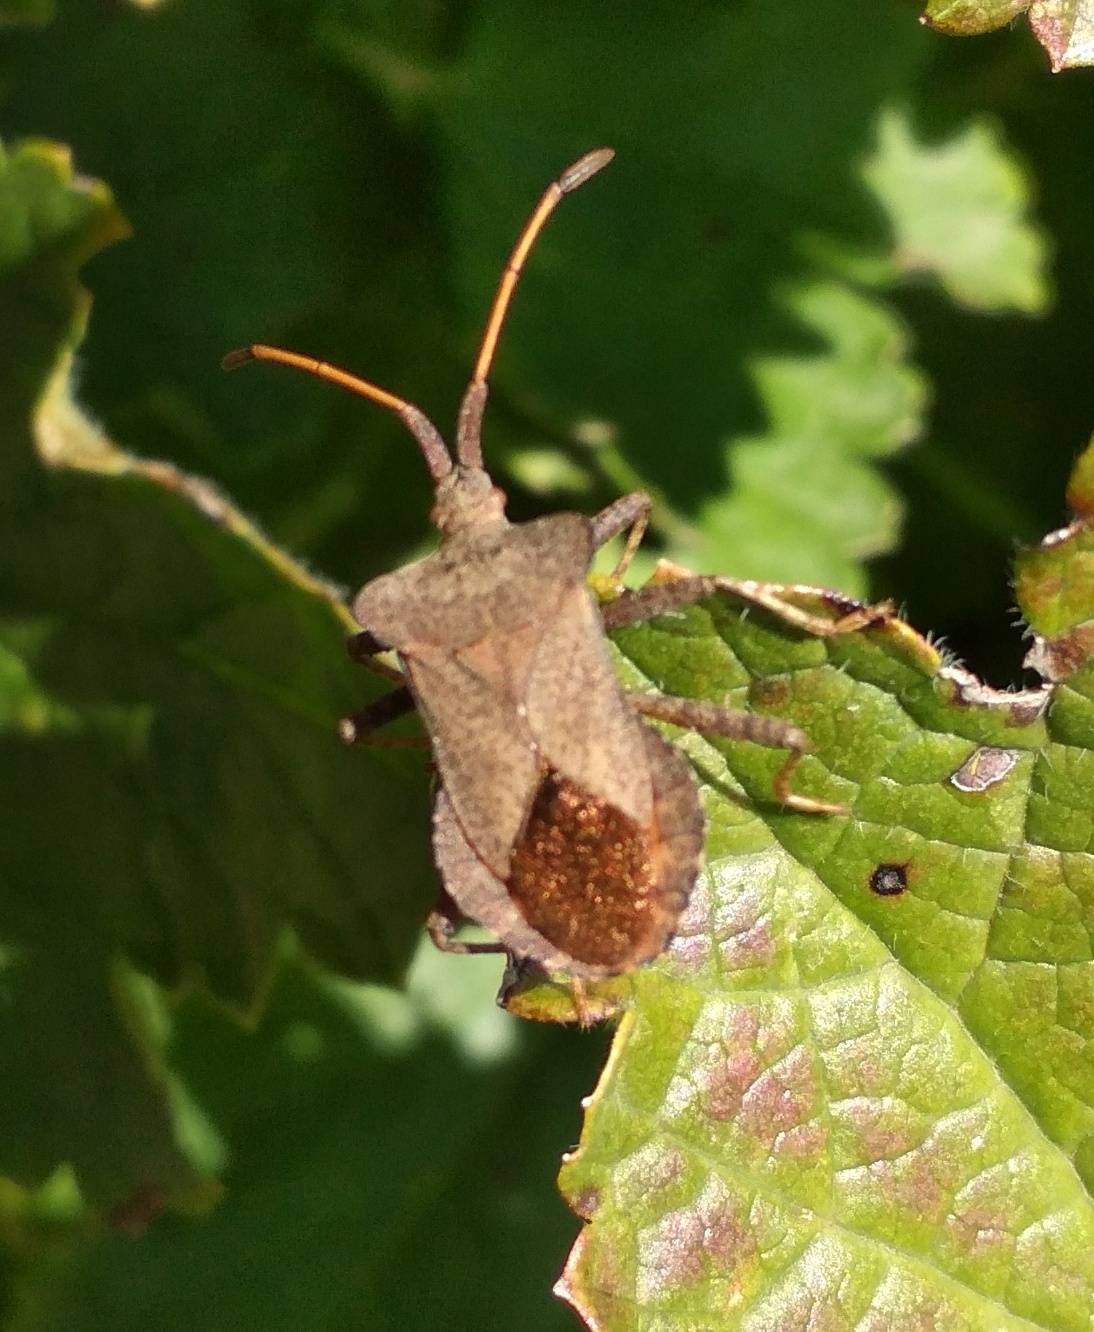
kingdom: Animalia
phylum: Arthropoda
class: Insecta
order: Hemiptera
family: Coreidae
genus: Coreus
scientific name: Coreus marginatus
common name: Dock bug
